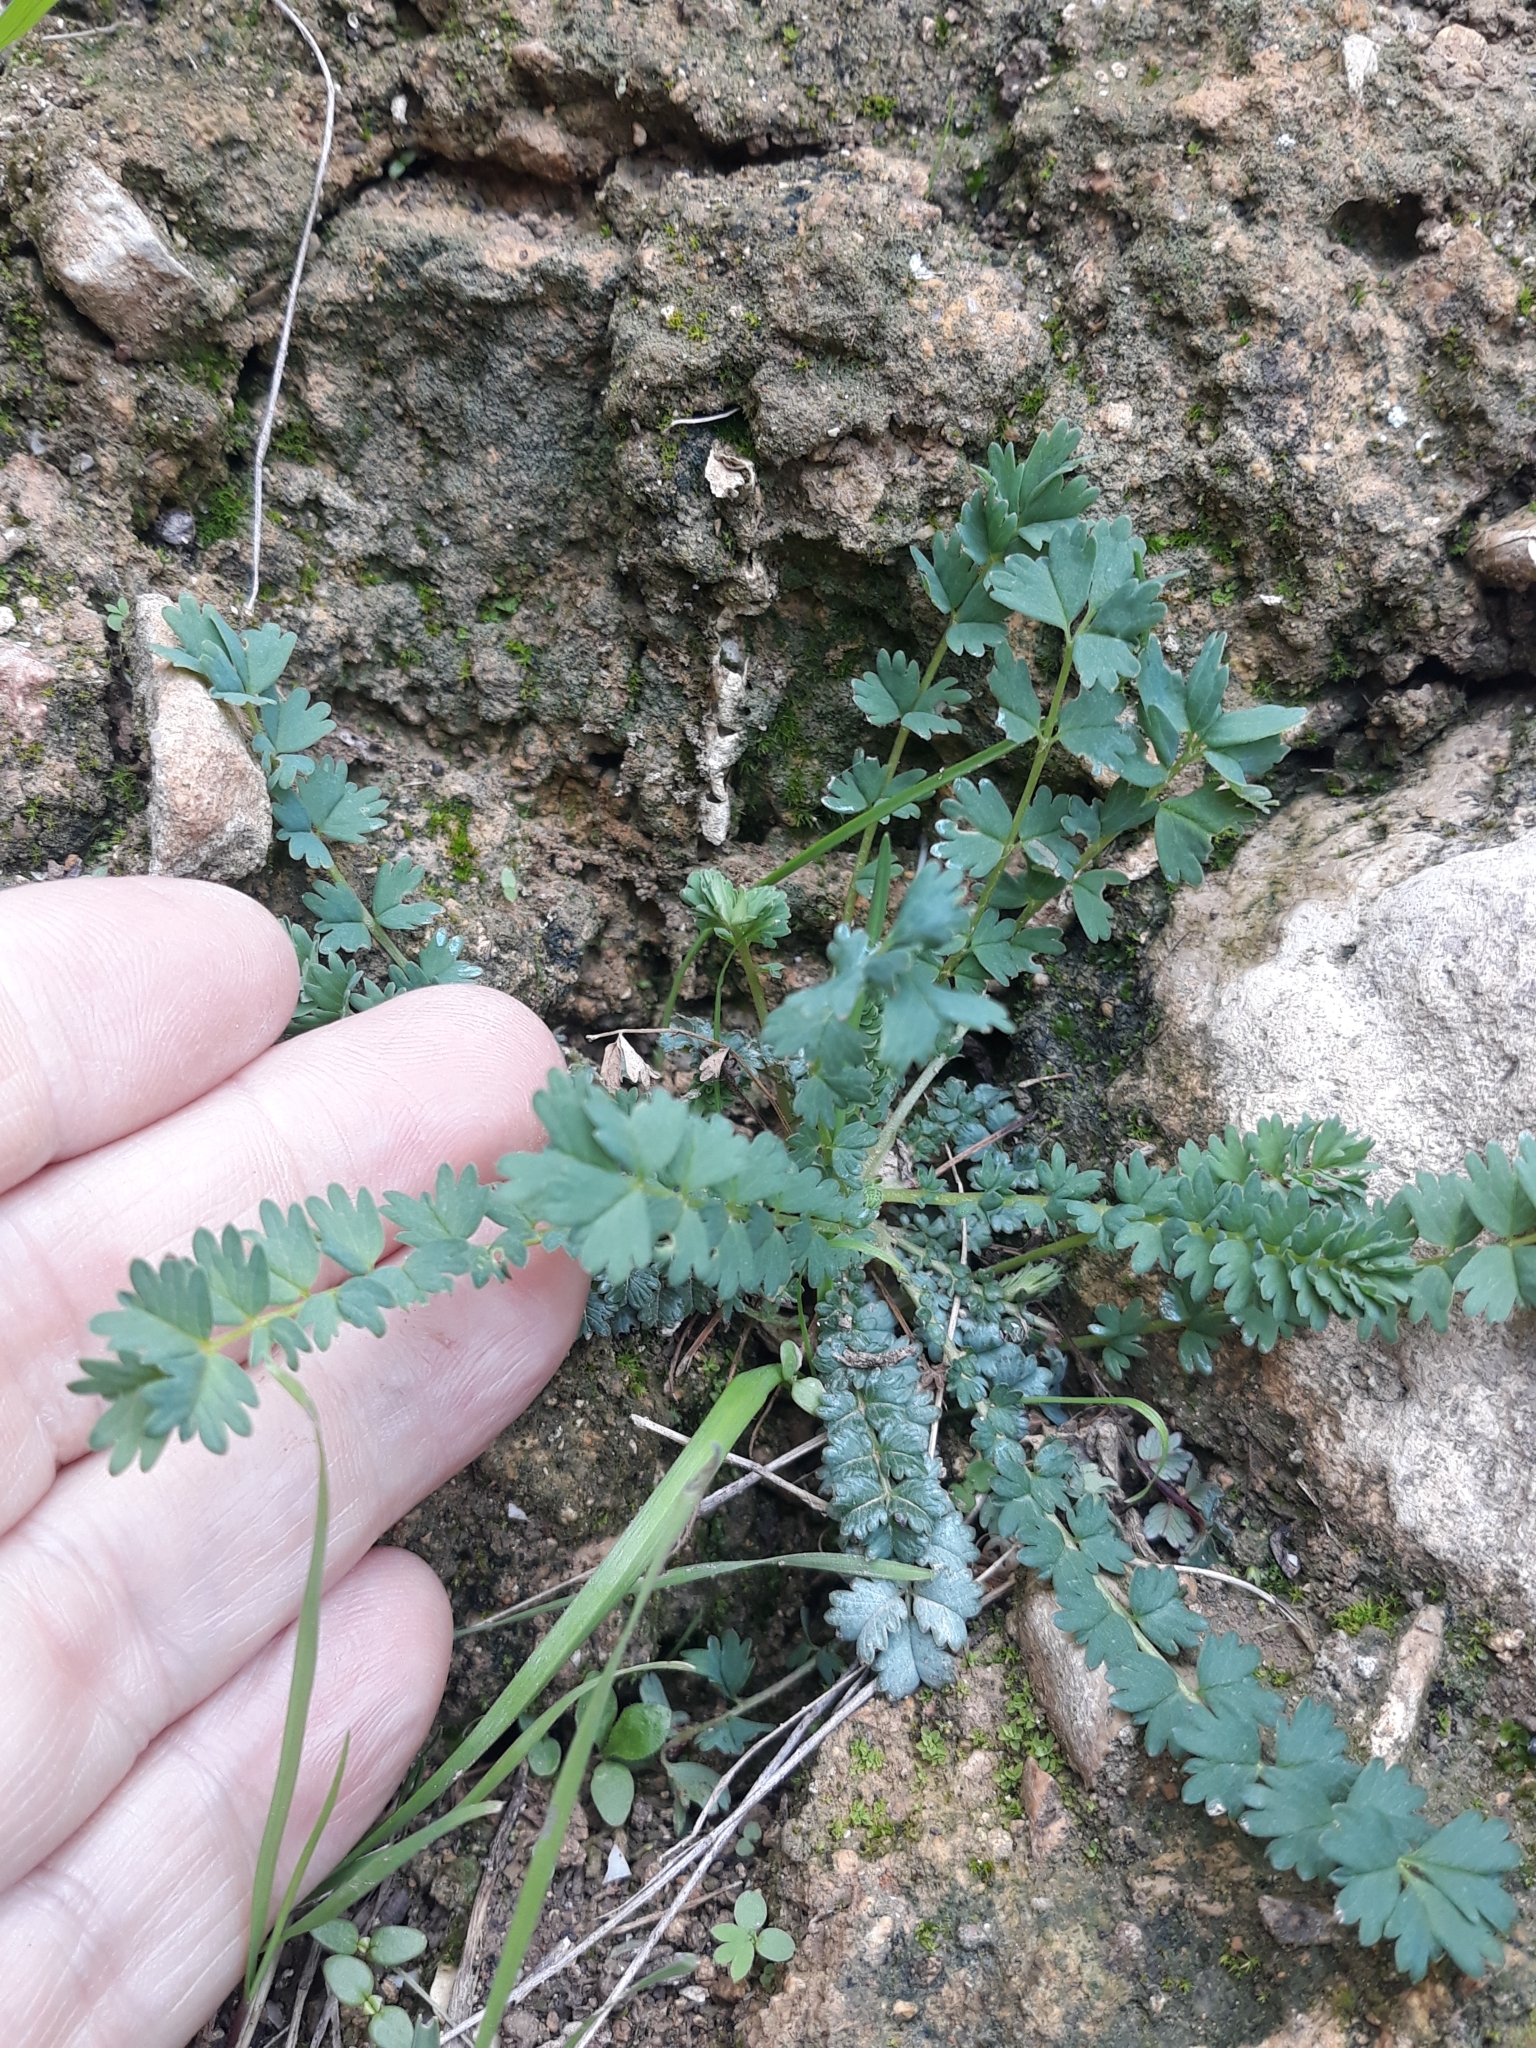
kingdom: Plantae
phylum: Tracheophyta
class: Magnoliopsida
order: Rosales
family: Rosaceae
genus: Poterium
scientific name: Poterium
